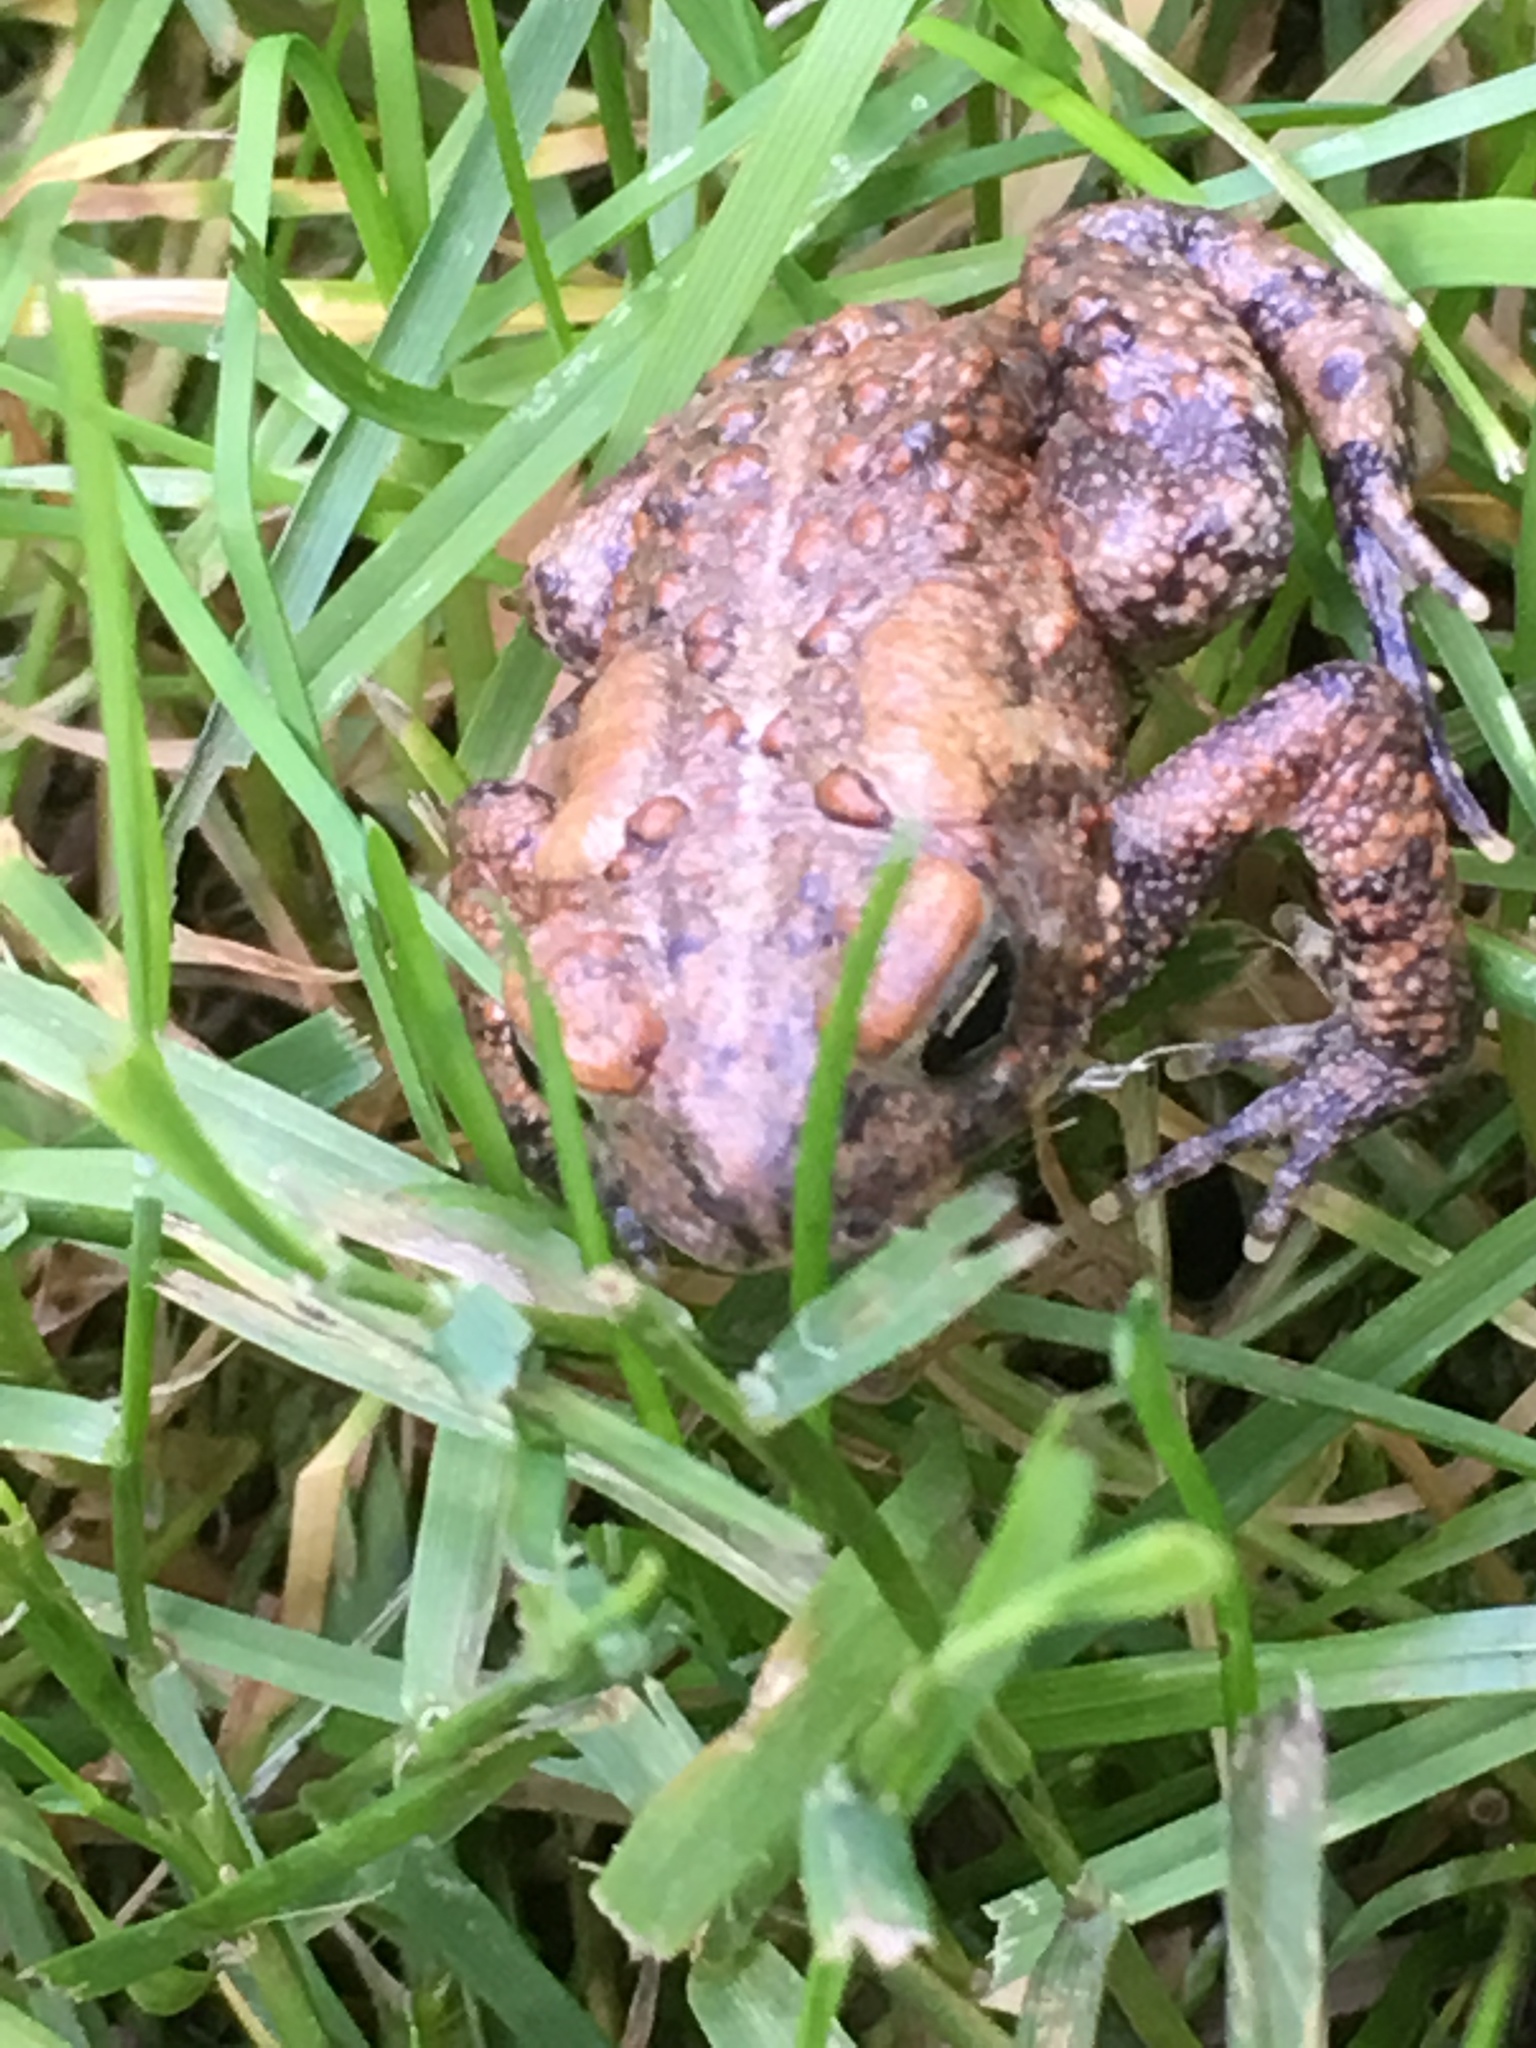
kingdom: Animalia
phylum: Chordata
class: Amphibia
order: Anura
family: Bufonidae
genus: Anaxyrus
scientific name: Anaxyrus americanus
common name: American toad
